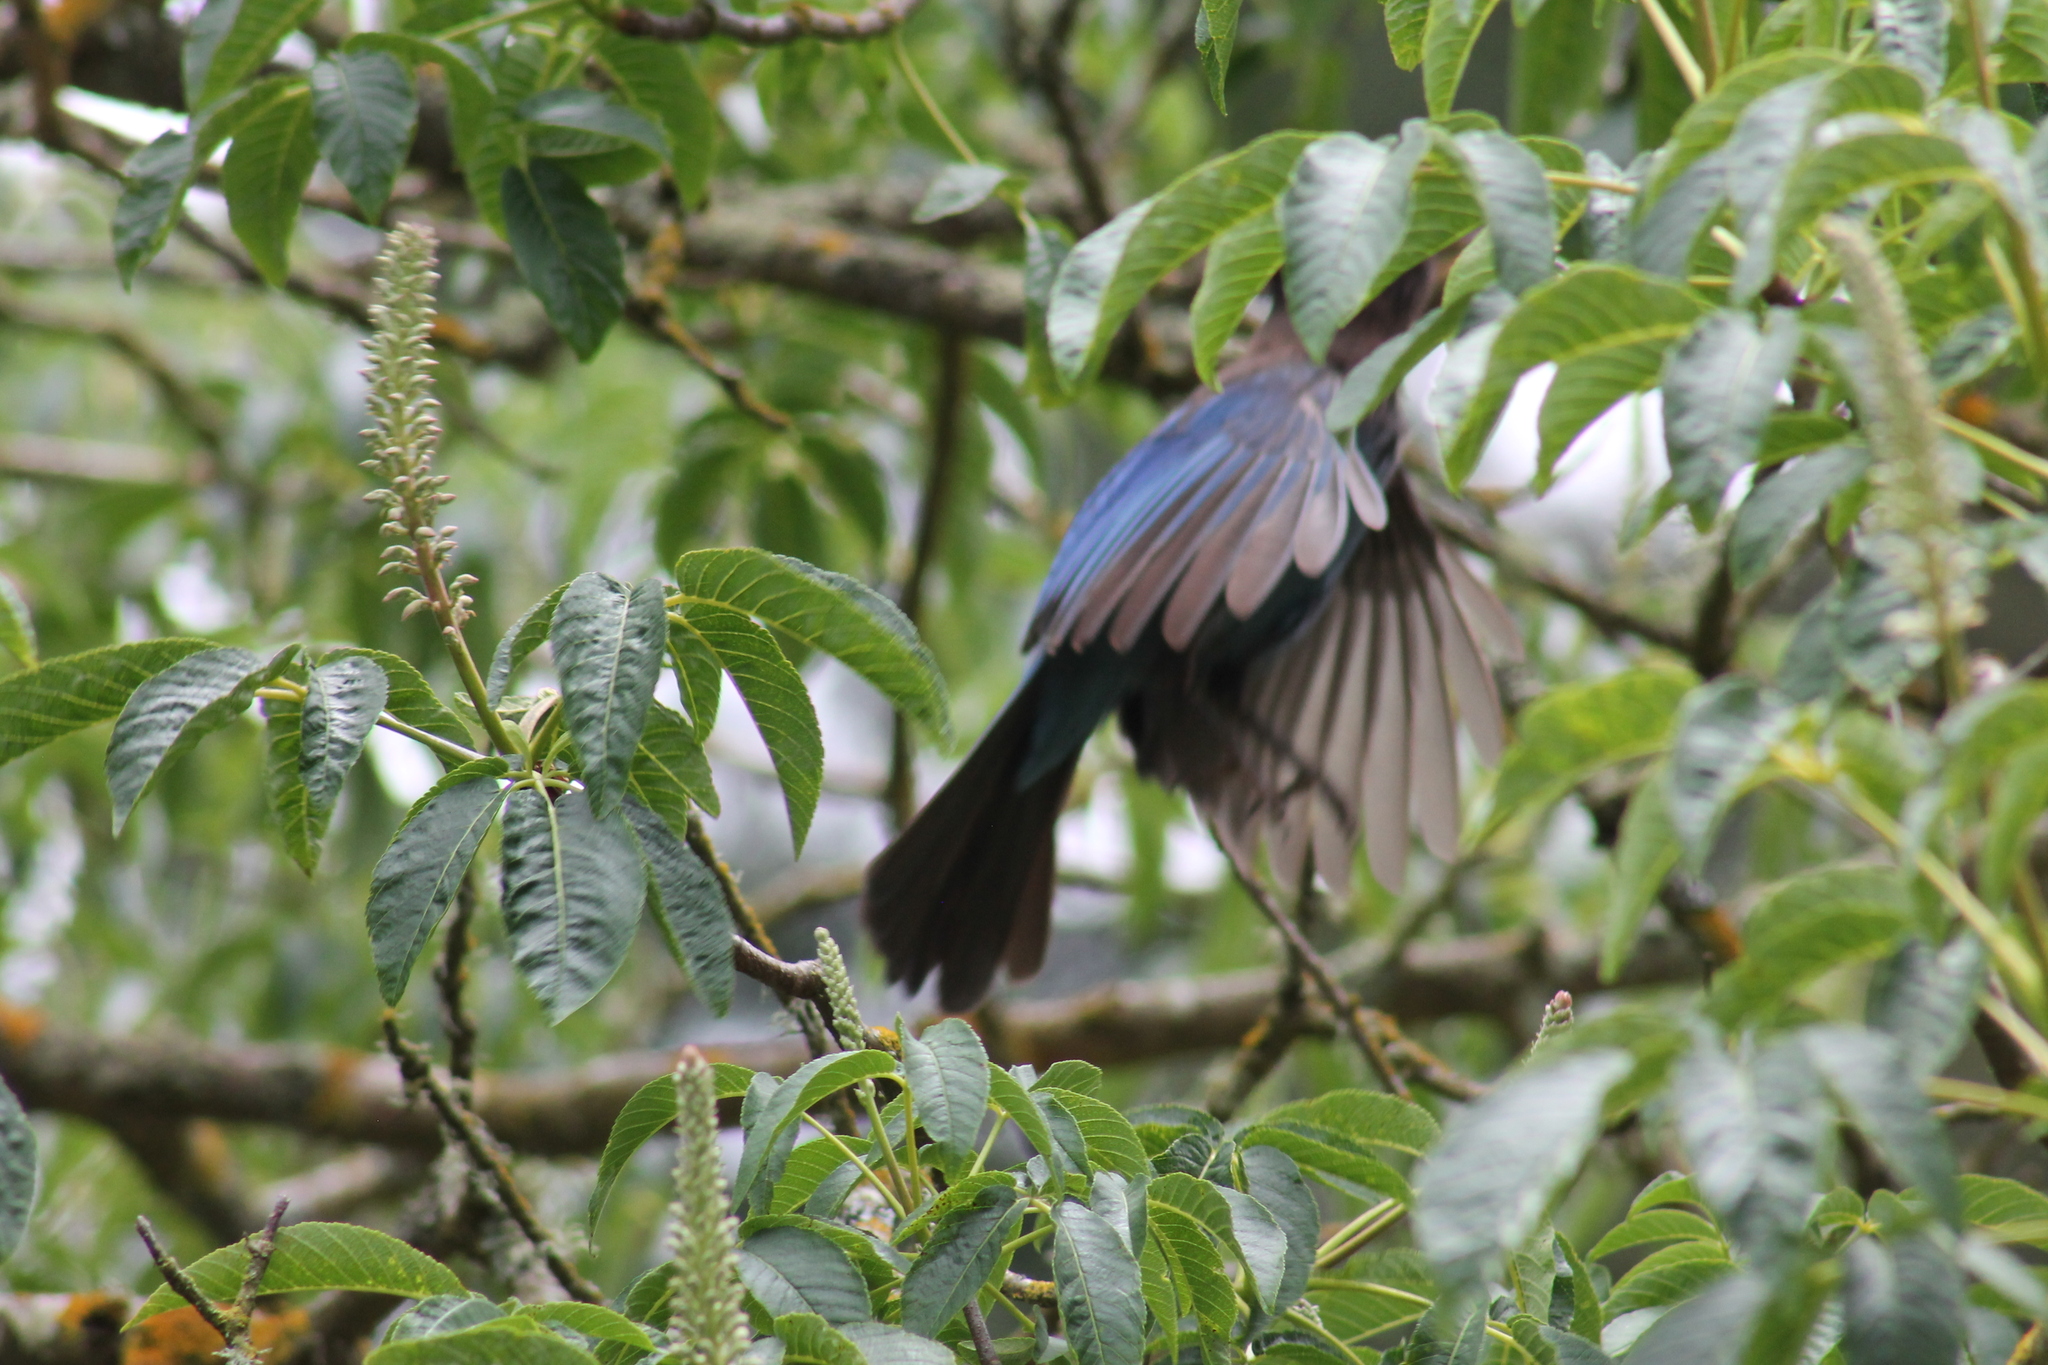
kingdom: Animalia
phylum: Chordata
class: Aves
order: Passeriformes
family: Corvidae
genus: Cyanocitta
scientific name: Cyanocitta stelleri
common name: Steller's jay
